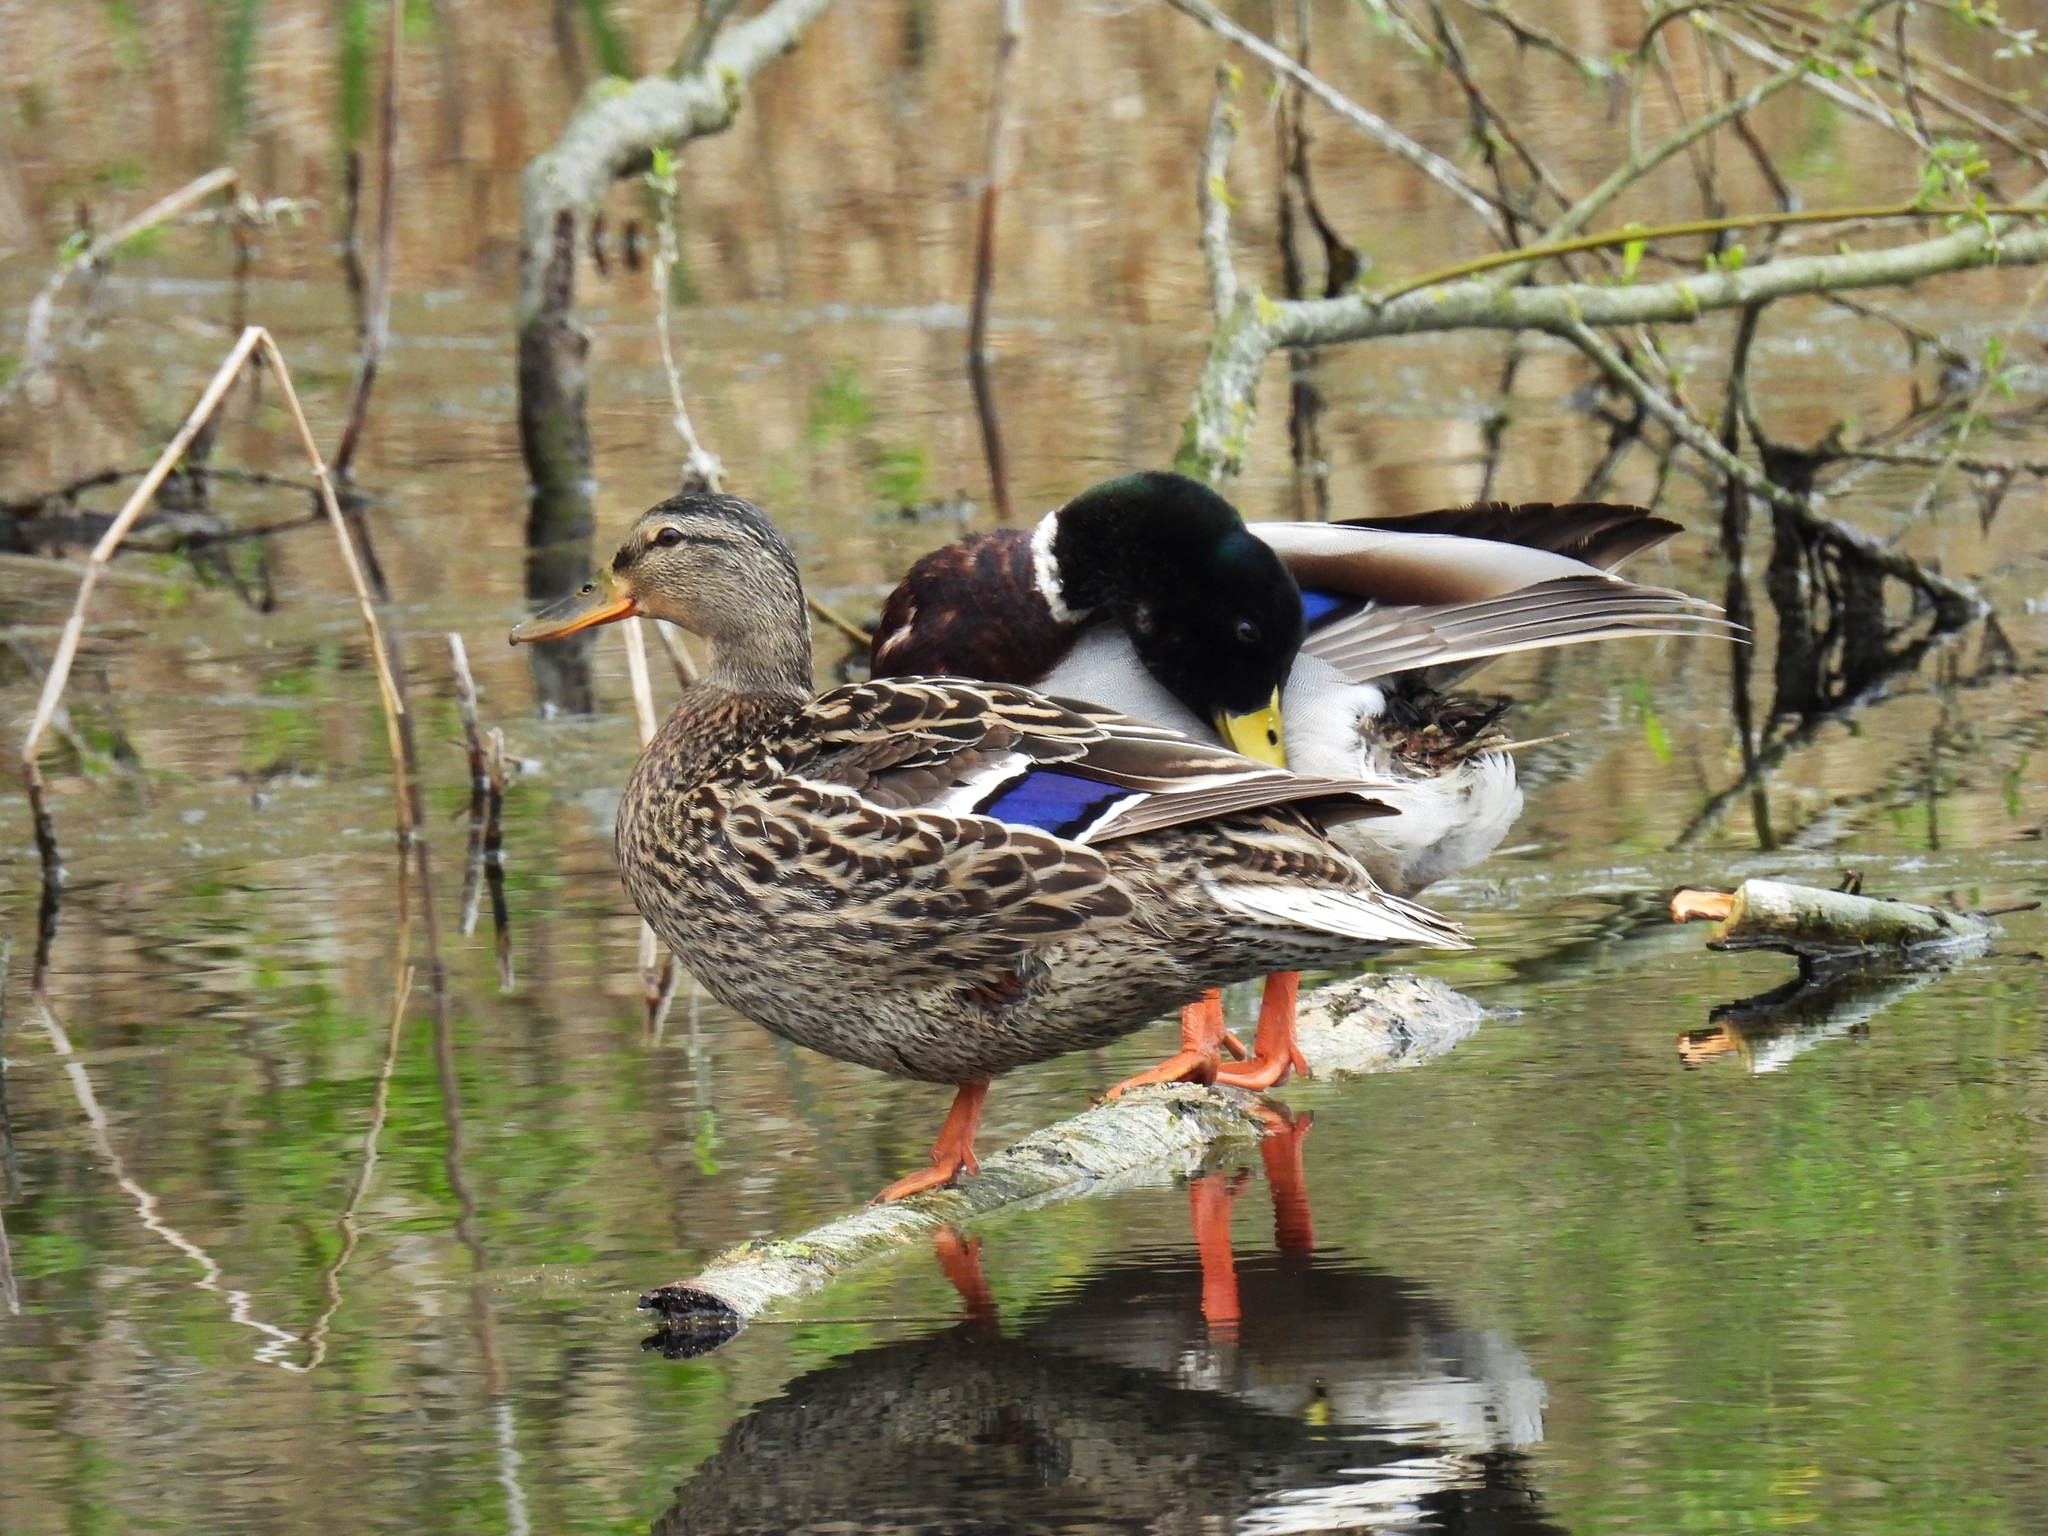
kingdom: Animalia
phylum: Chordata
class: Aves
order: Anseriformes
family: Anatidae
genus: Anas
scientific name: Anas platyrhynchos
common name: Mallard
